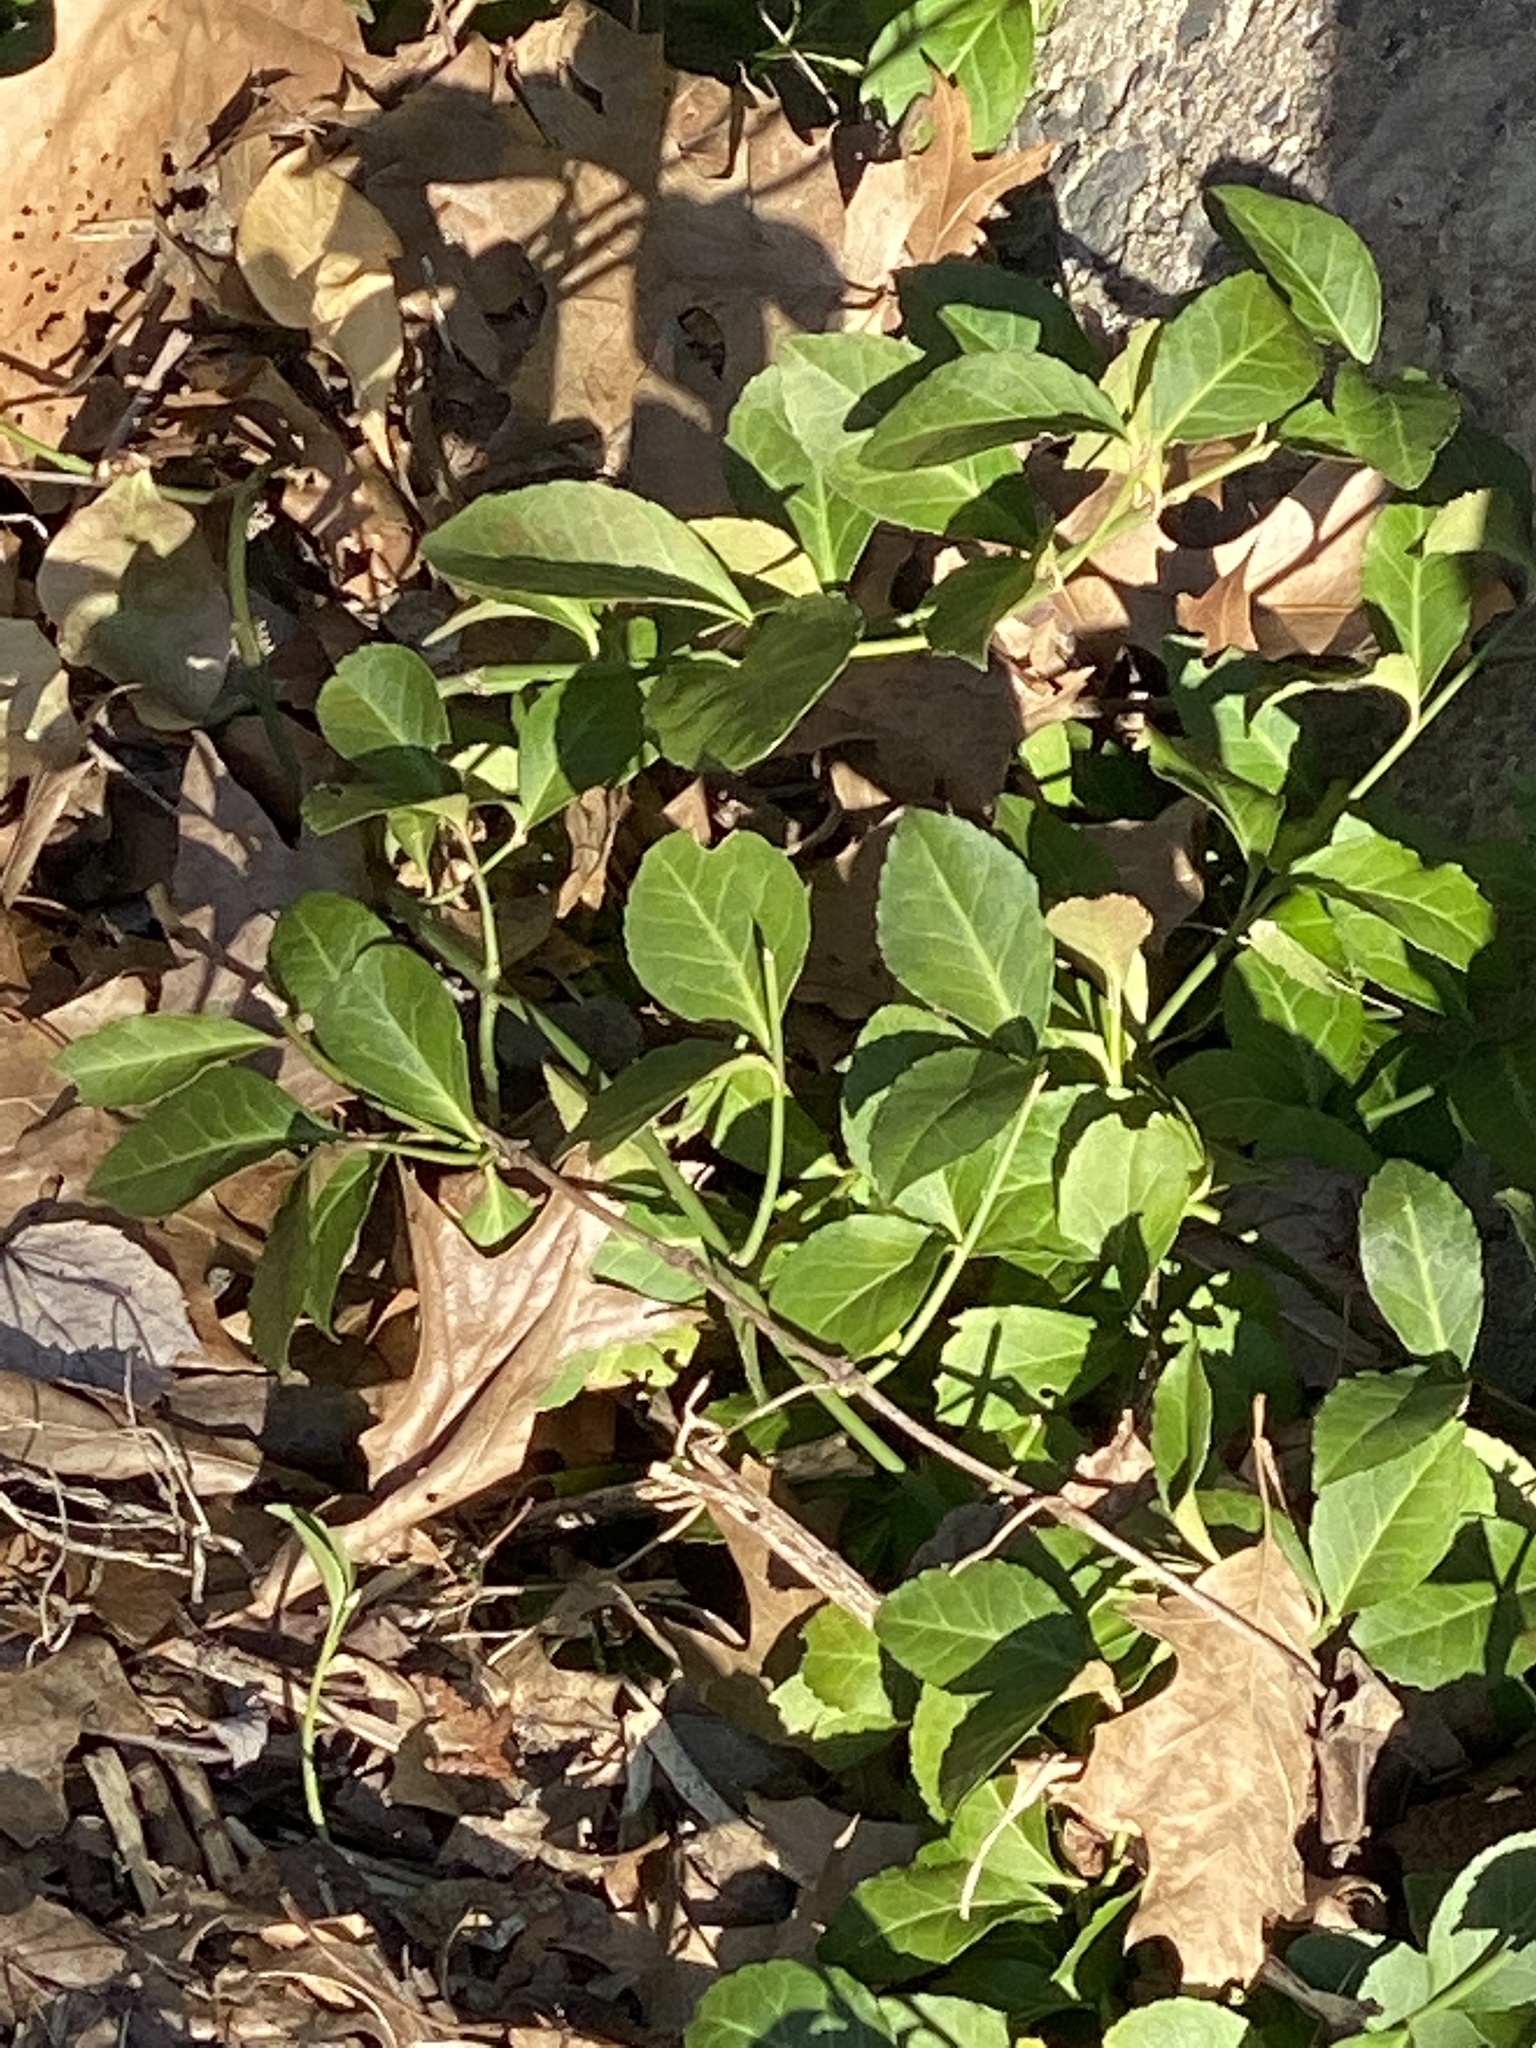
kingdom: Plantae
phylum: Tracheophyta
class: Magnoliopsida
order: Celastrales
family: Celastraceae
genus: Euonymus
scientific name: Euonymus fortunei
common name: Climbing euonymus
